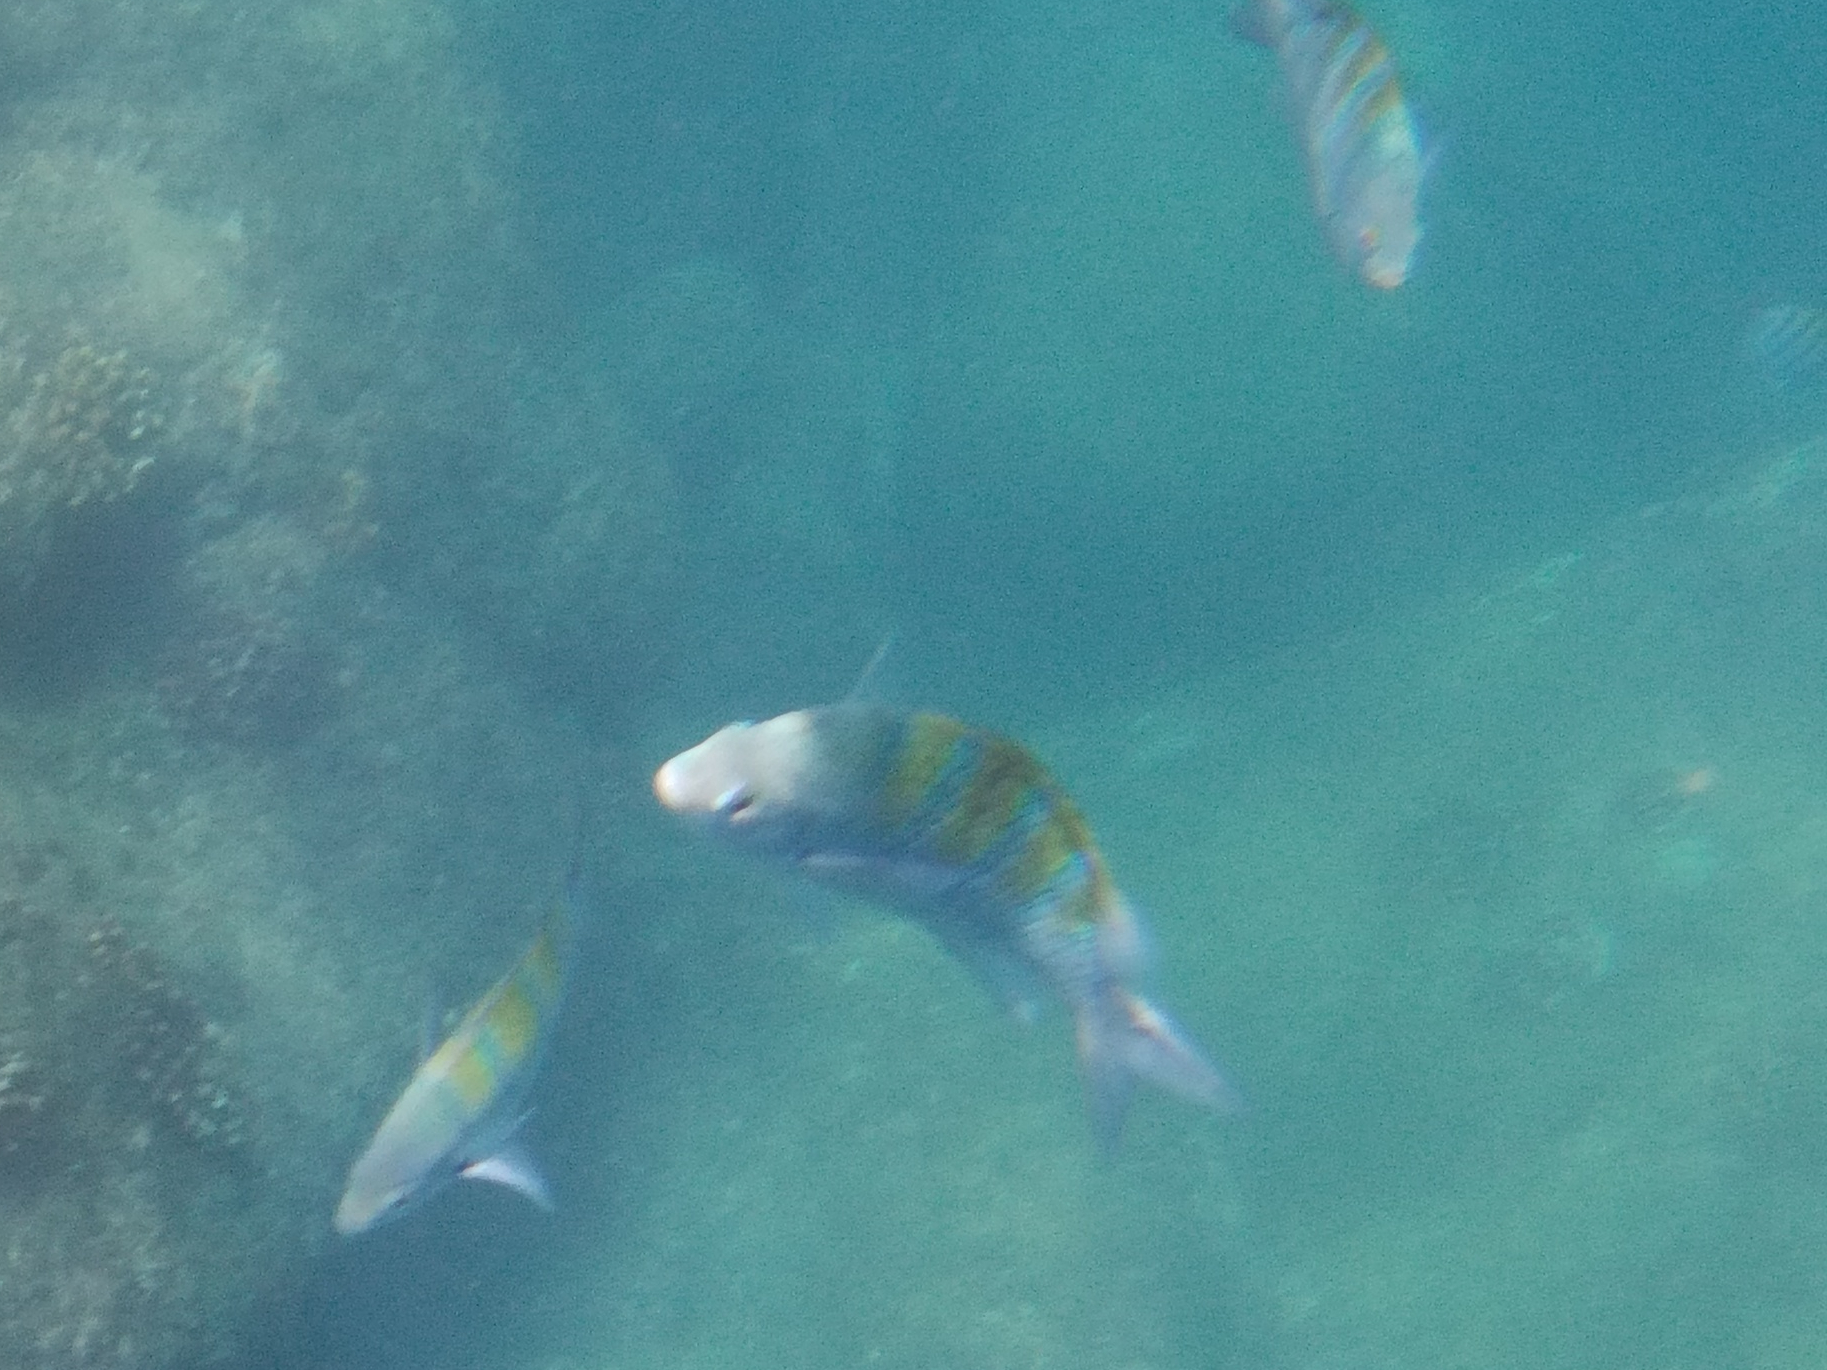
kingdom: Animalia
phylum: Chordata
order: Perciformes
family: Pomacentridae
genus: Abudefduf
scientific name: Abudefduf troschelii
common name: Panamic sergeant major
